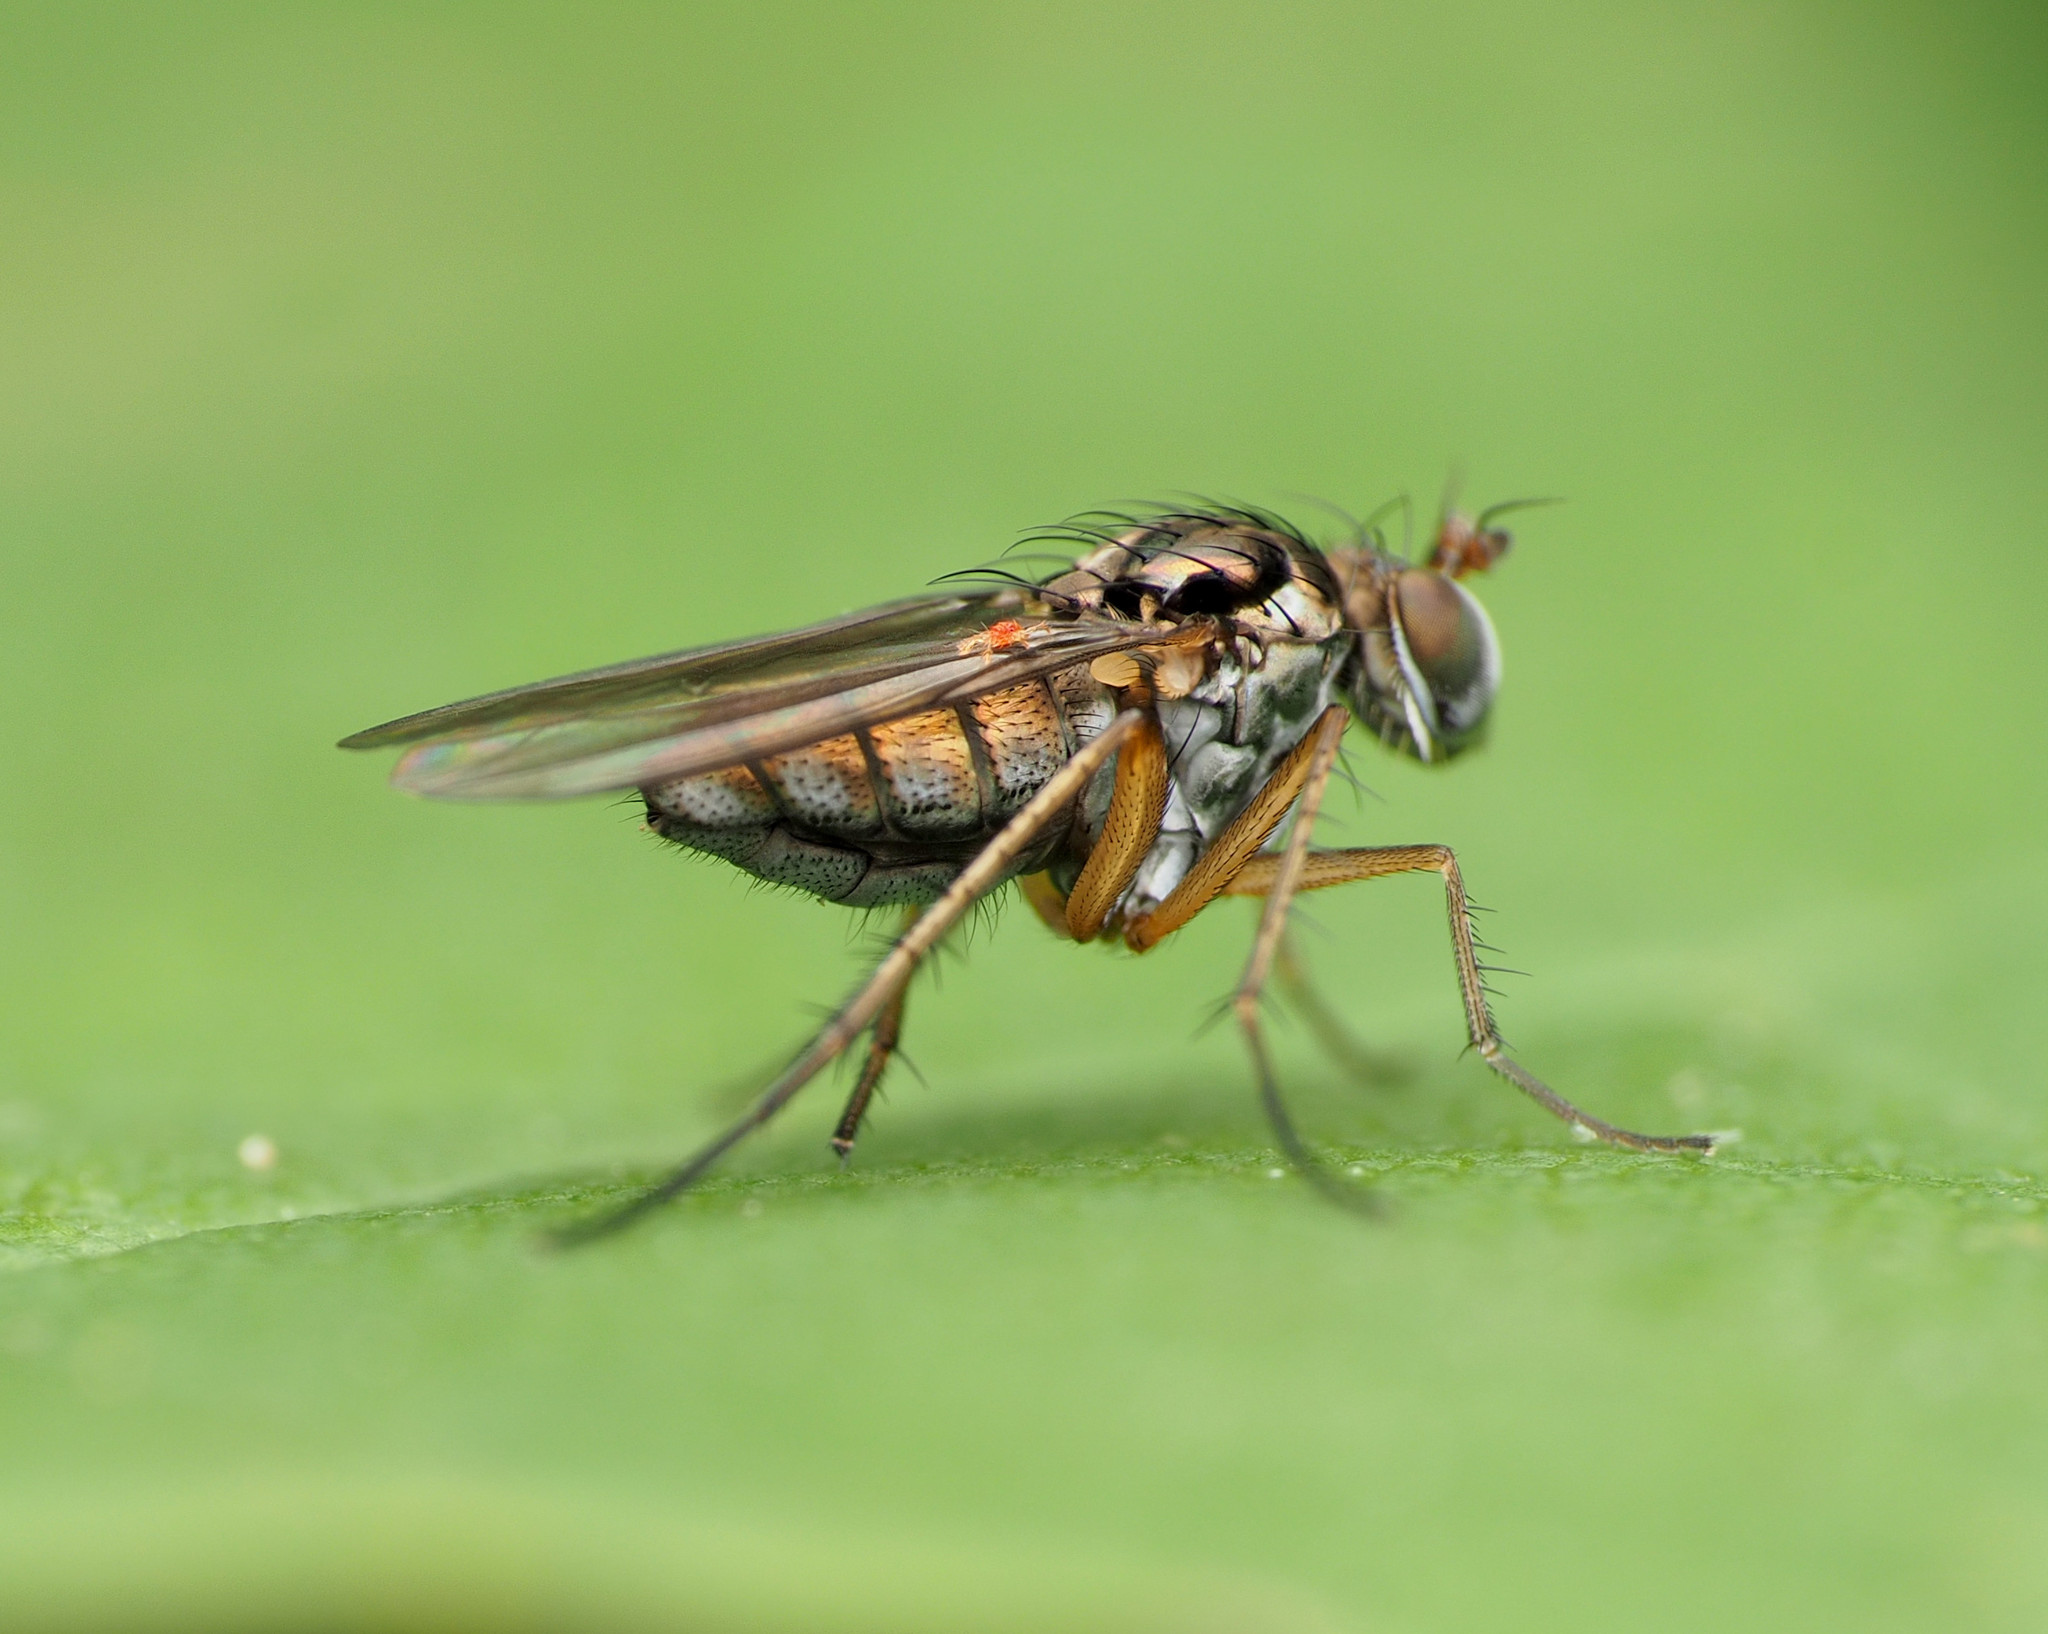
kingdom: Animalia
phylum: Arthropoda
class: Insecta
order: Diptera
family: Dolichopodidae
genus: Pelastoneurus
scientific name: Pelastoneurus vagans
